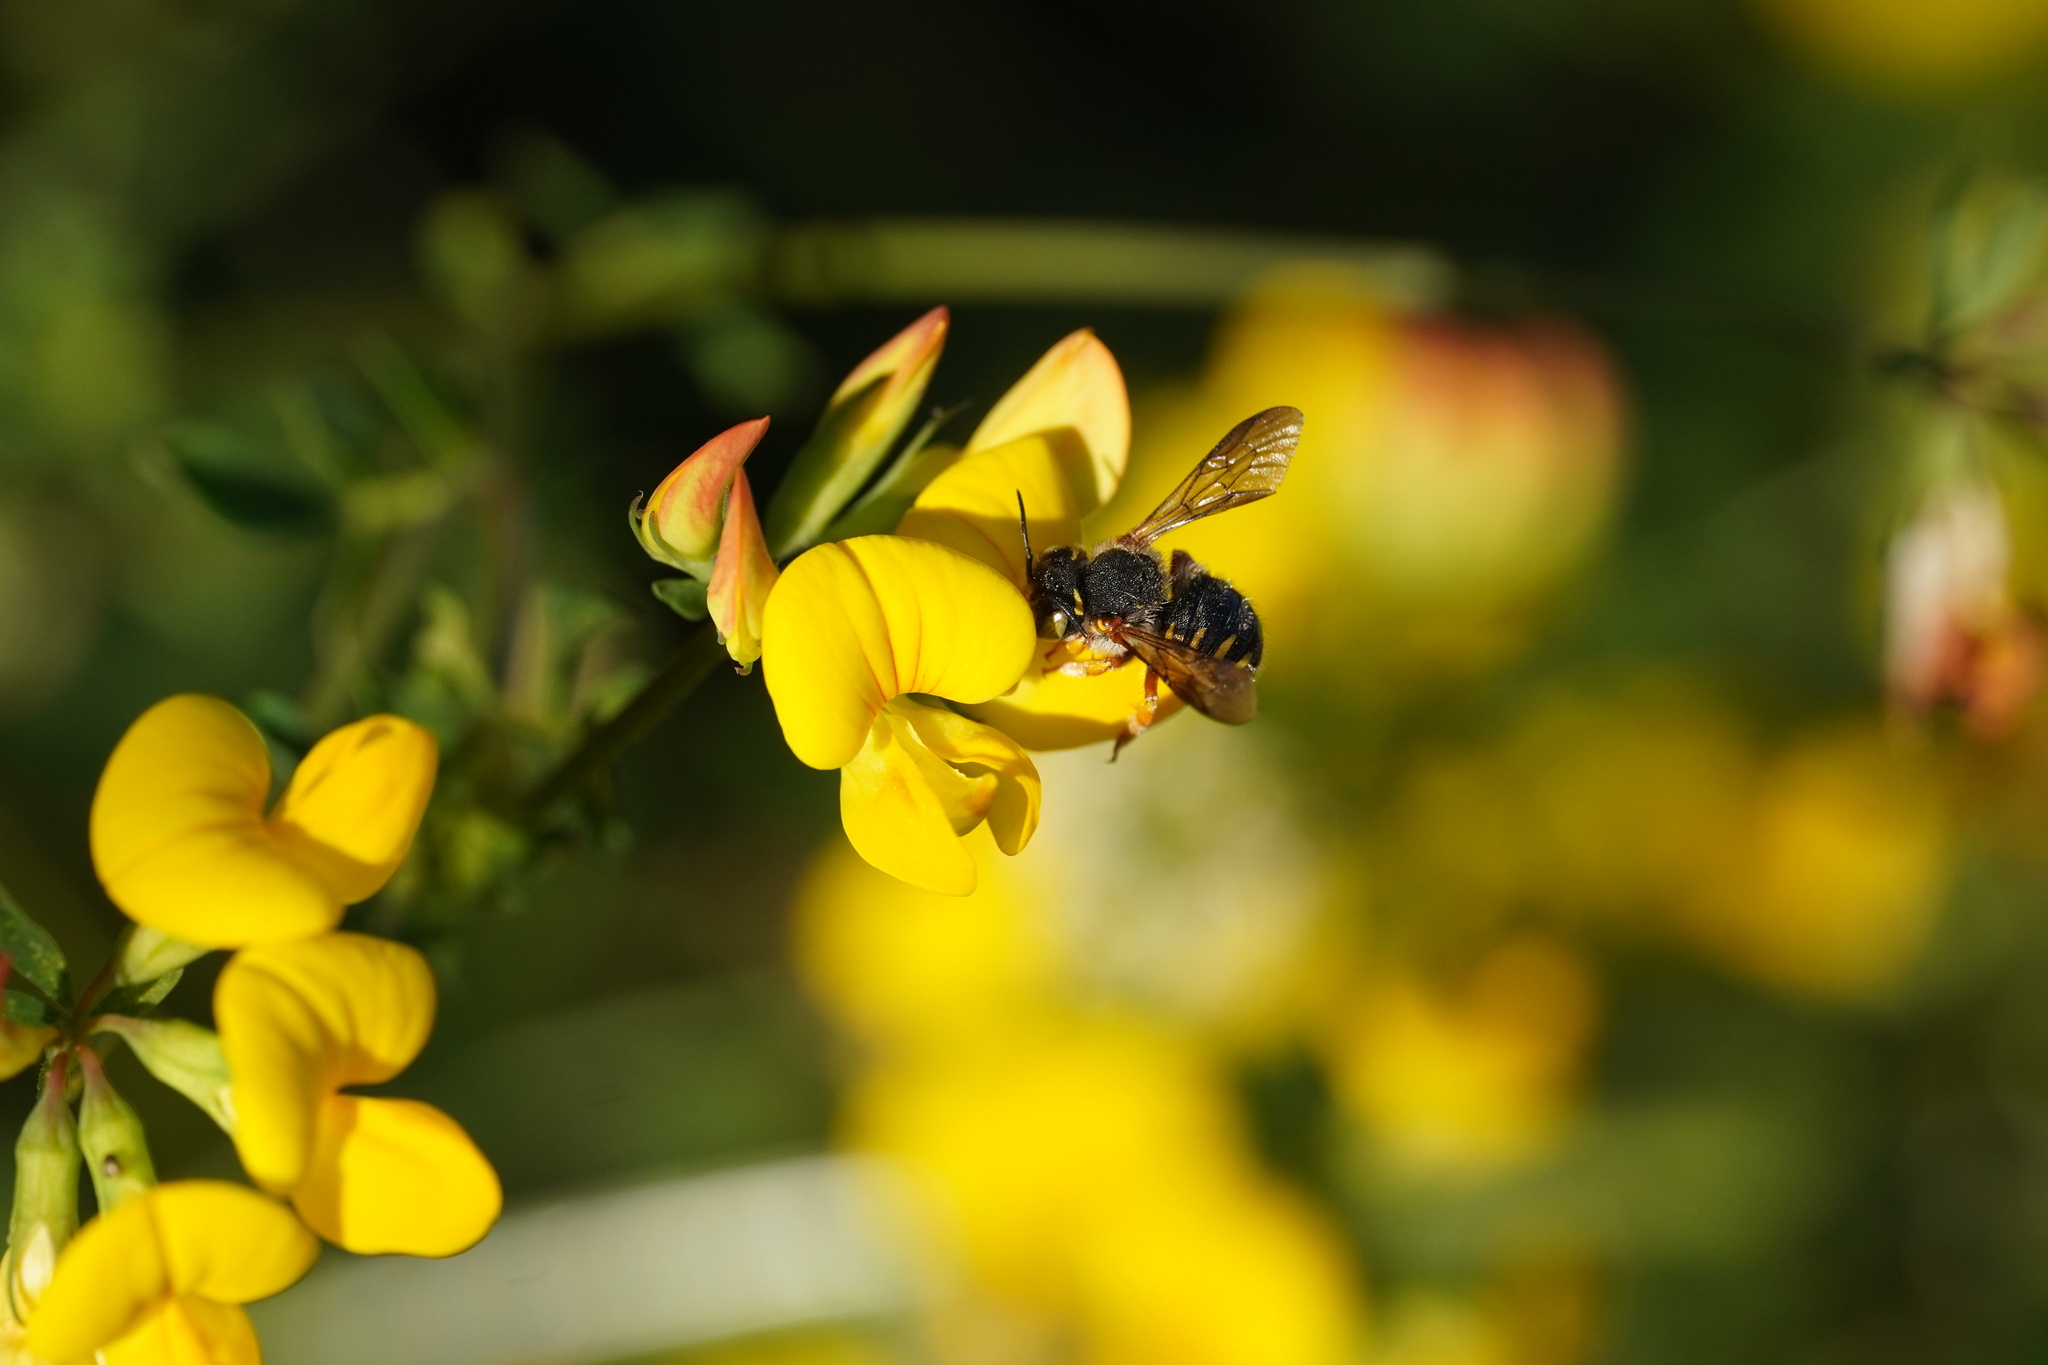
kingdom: Animalia
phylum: Arthropoda
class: Insecta
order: Hymenoptera
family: Megachilidae
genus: Anthidium
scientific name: Anthidium oblongatum
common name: Oblong wool carder bee
